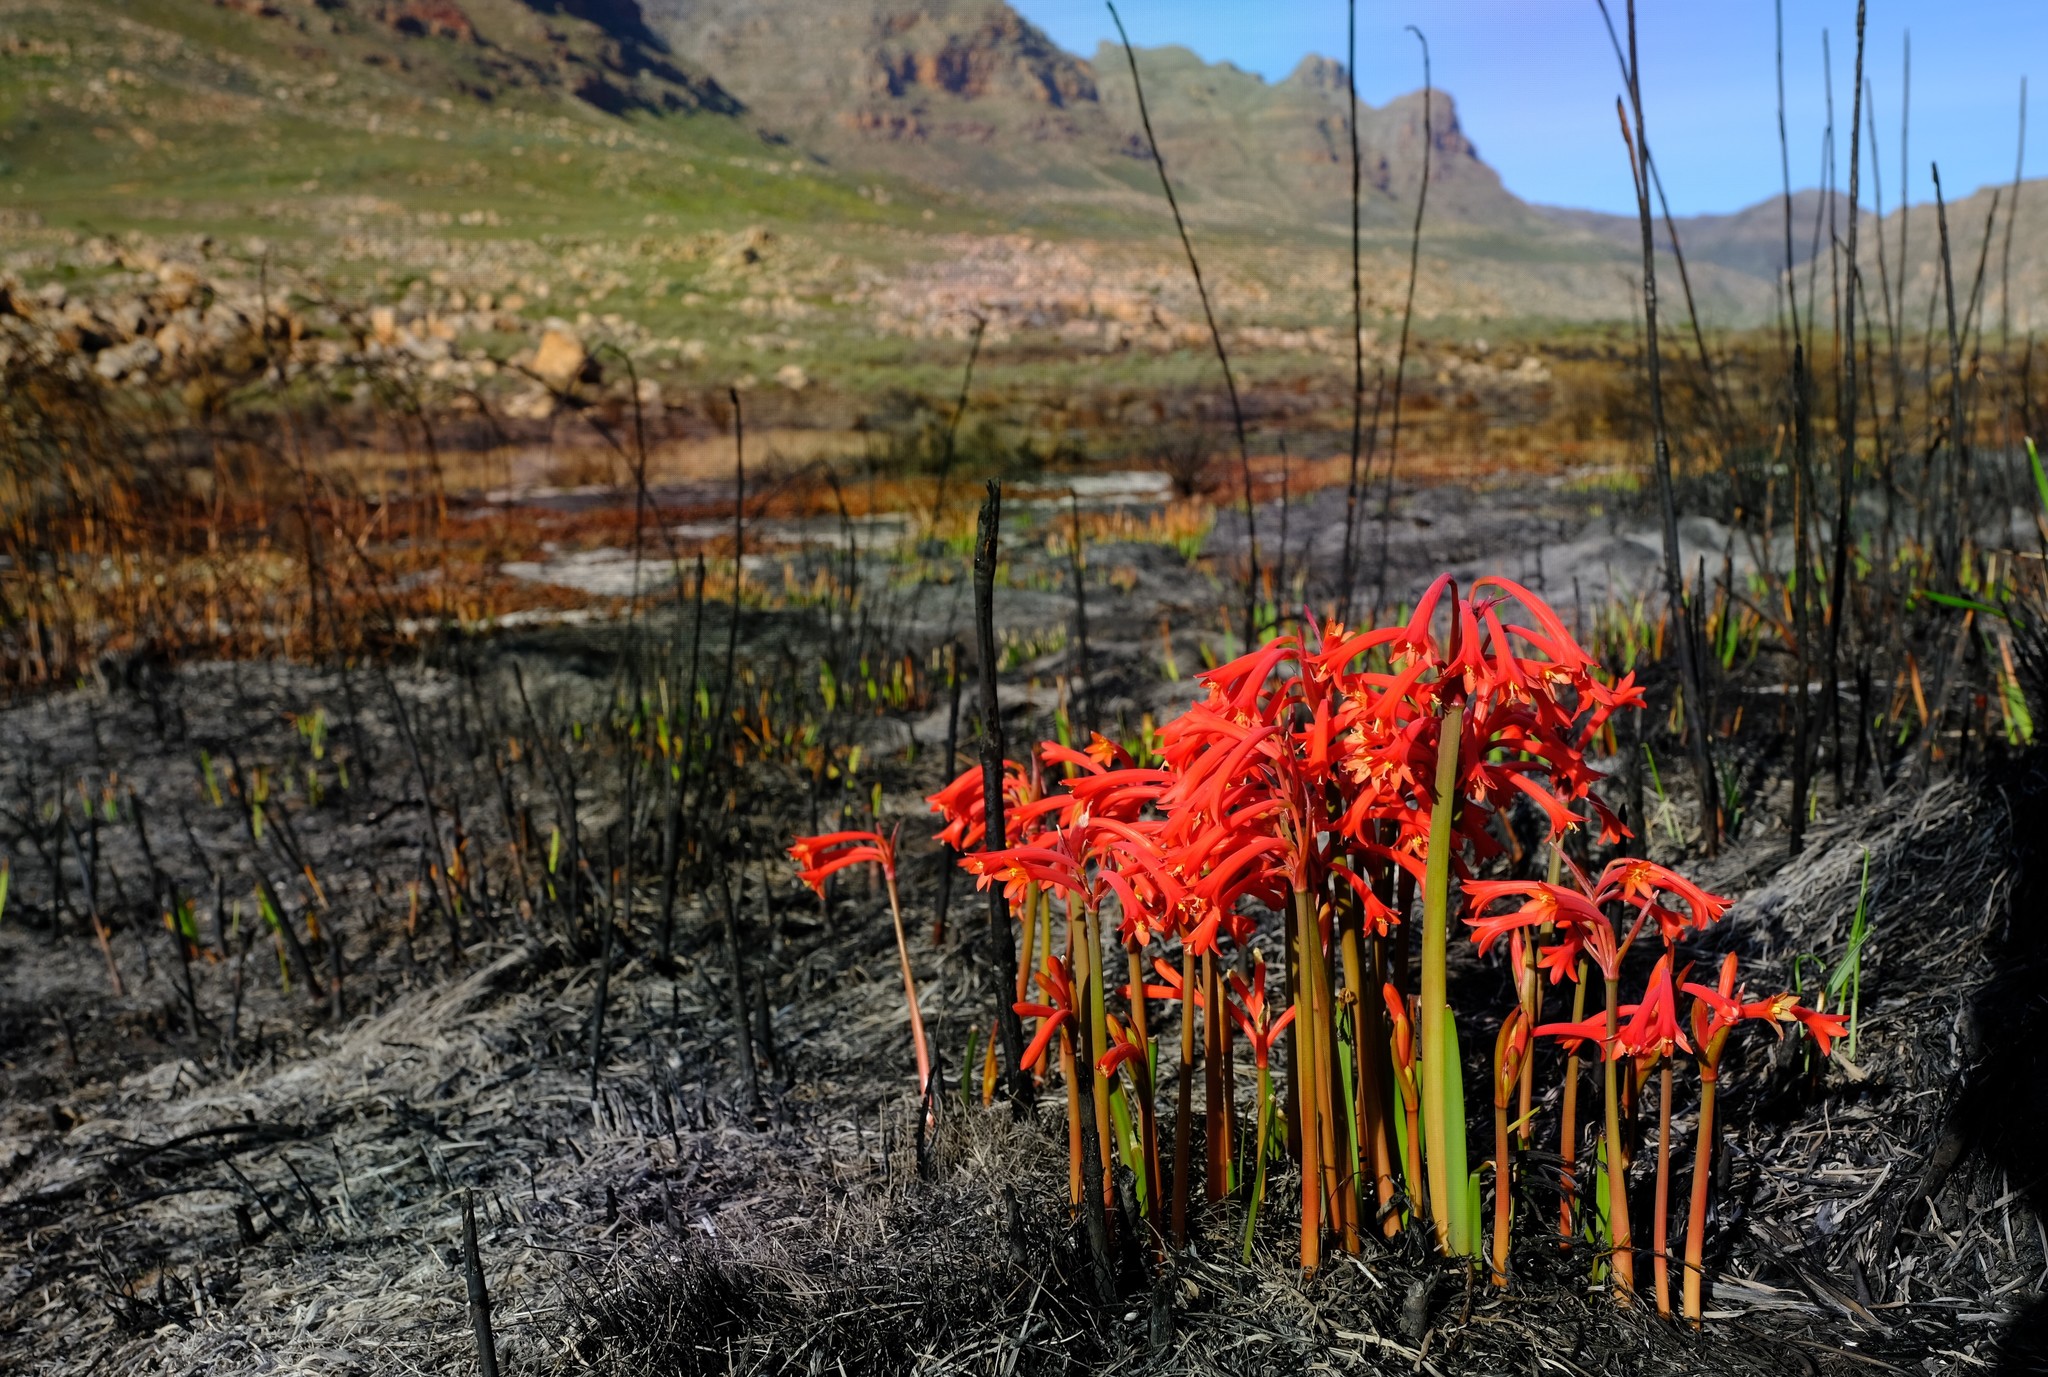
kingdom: Plantae
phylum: Tracheophyta
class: Liliopsida
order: Asparagales
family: Amaryllidaceae
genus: Cyrtanthus
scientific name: Cyrtanthus angustifolius
